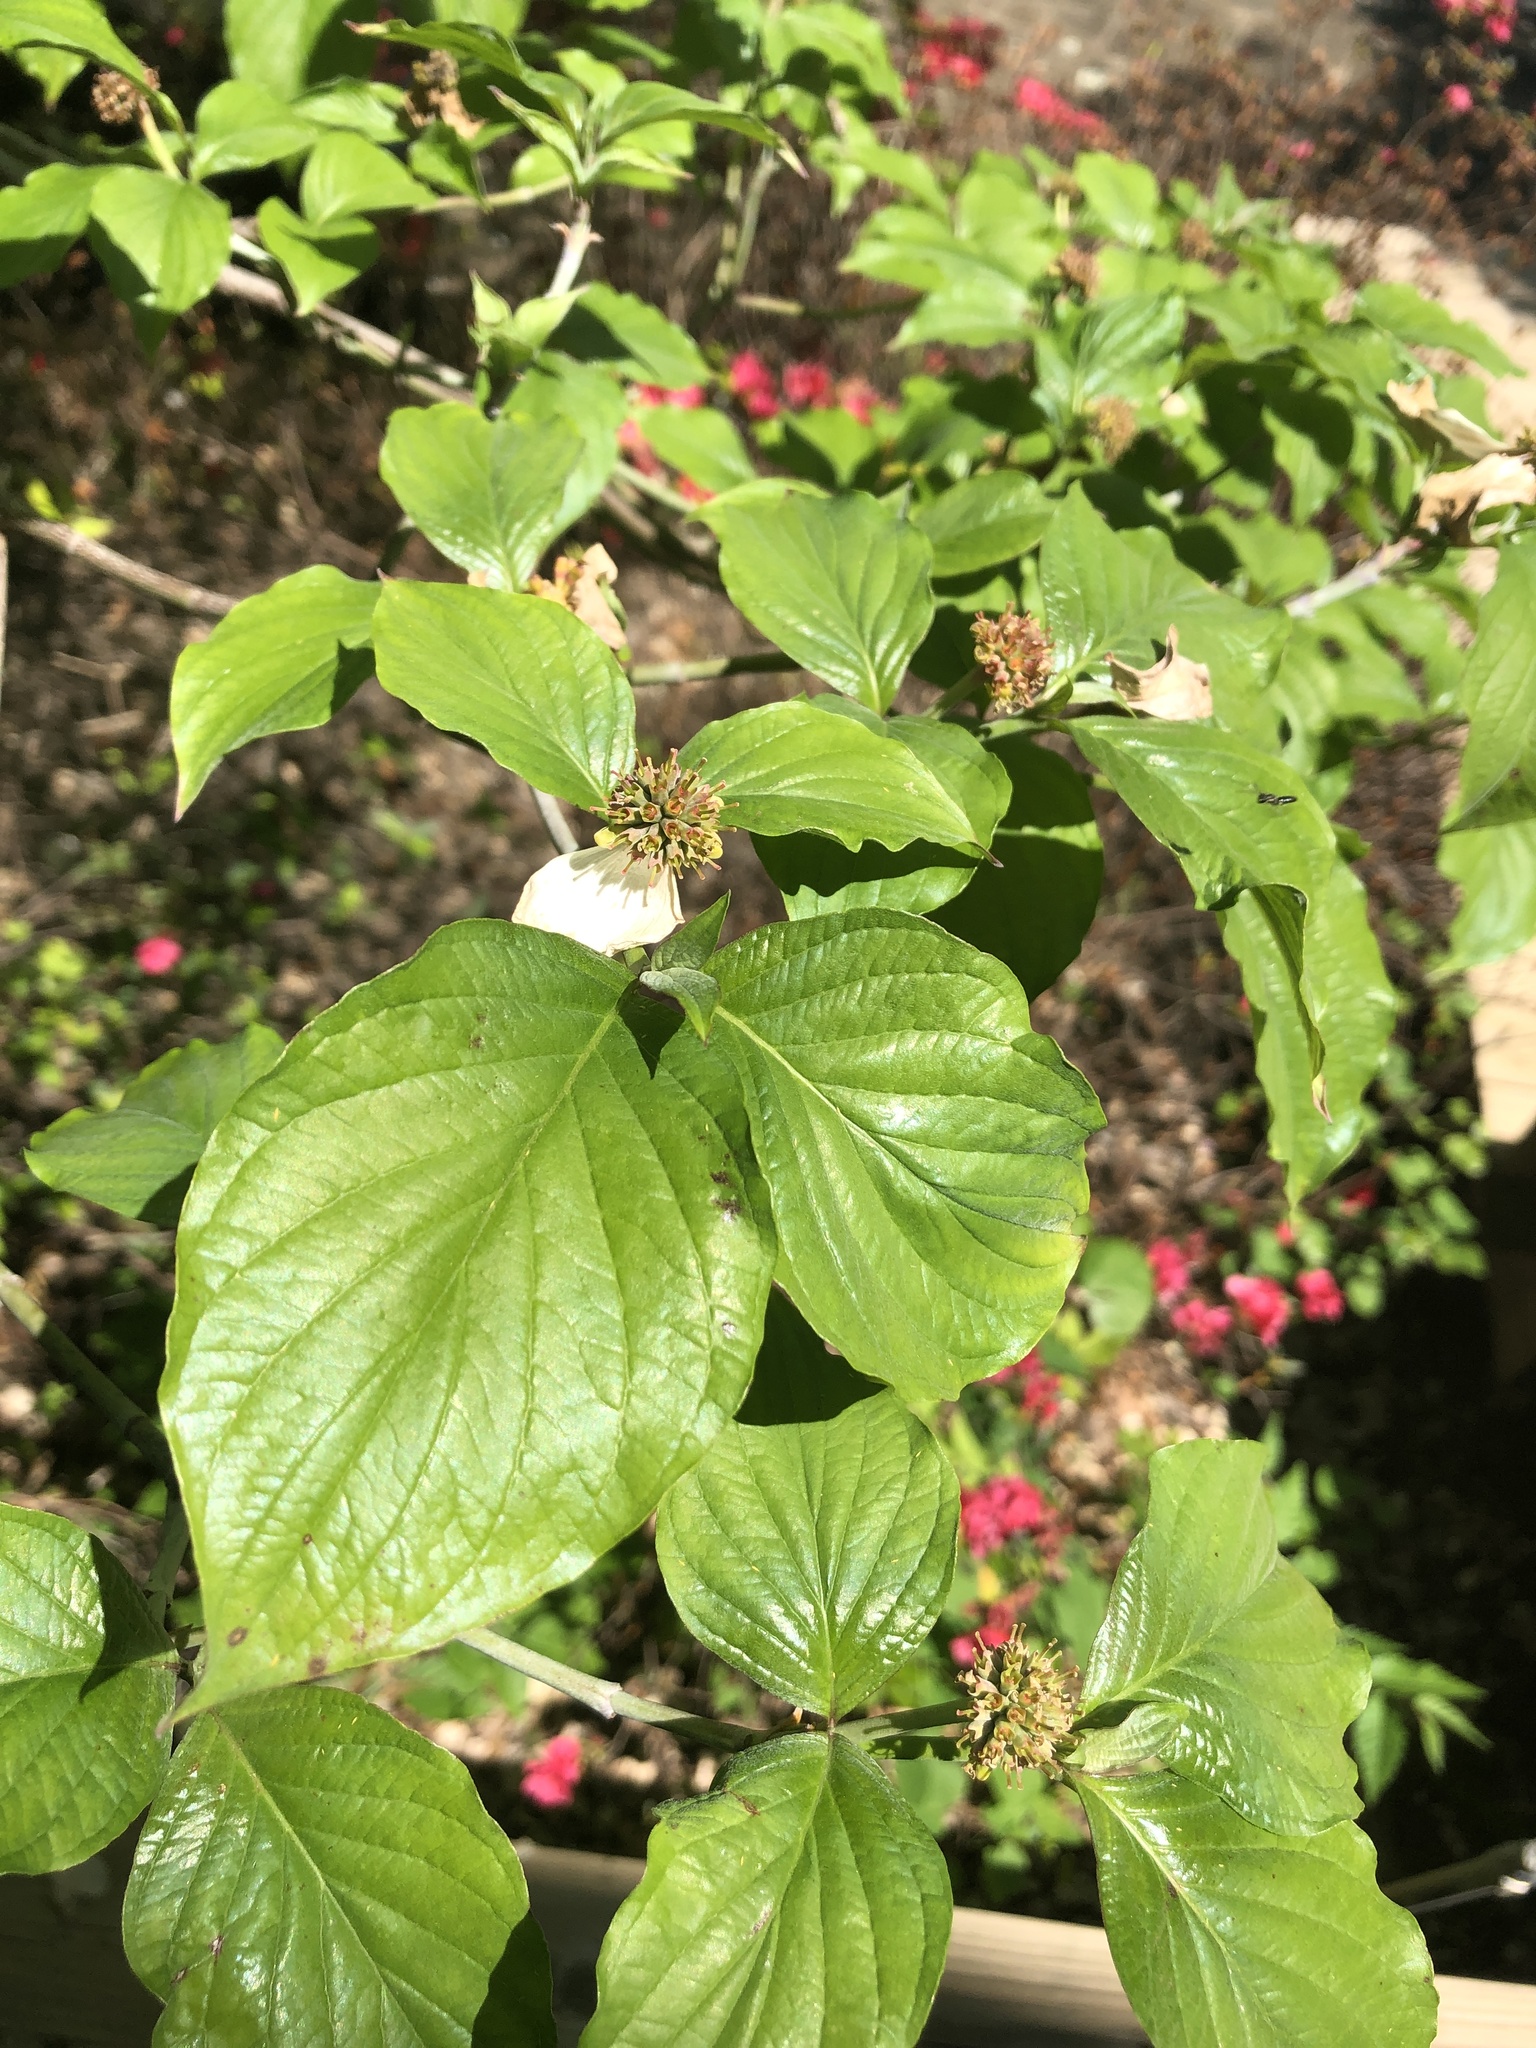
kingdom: Plantae
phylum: Tracheophyta
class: Magnoliopsida
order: Cornales
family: Cornaceae
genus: Cornus
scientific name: Cornus florida
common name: Flowering dogwood
